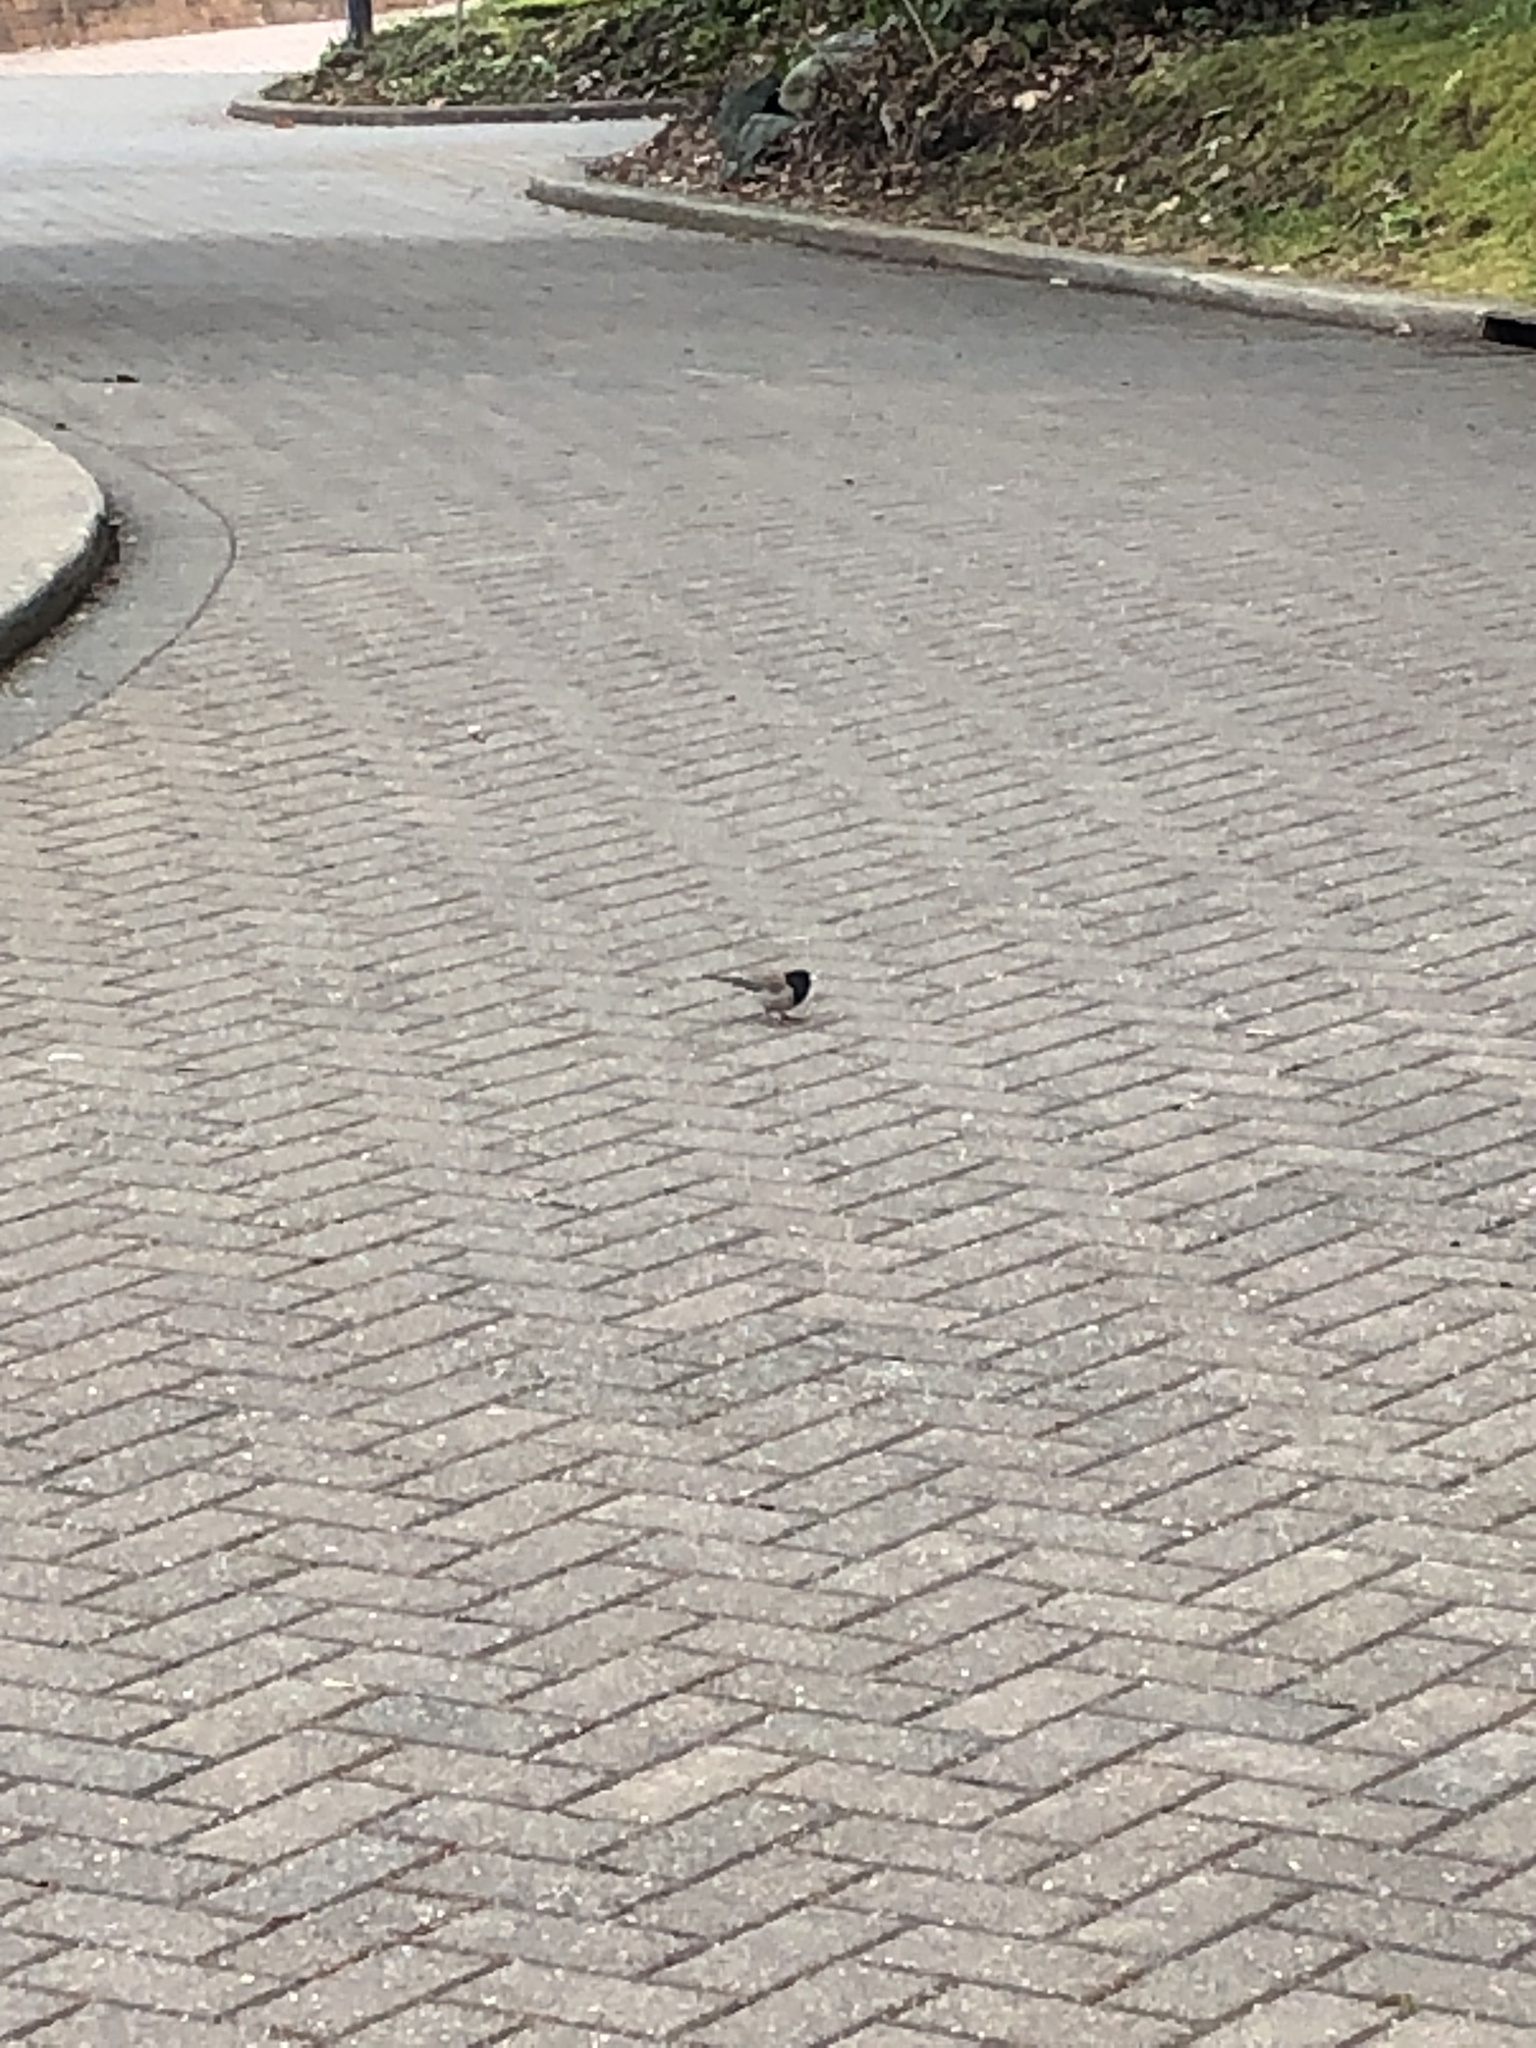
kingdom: Animalia
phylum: Chordata
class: Aves
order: Passeriformes
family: Passerellidae
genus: Junco
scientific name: Junco hyemalis
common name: Dark-eyed junco
